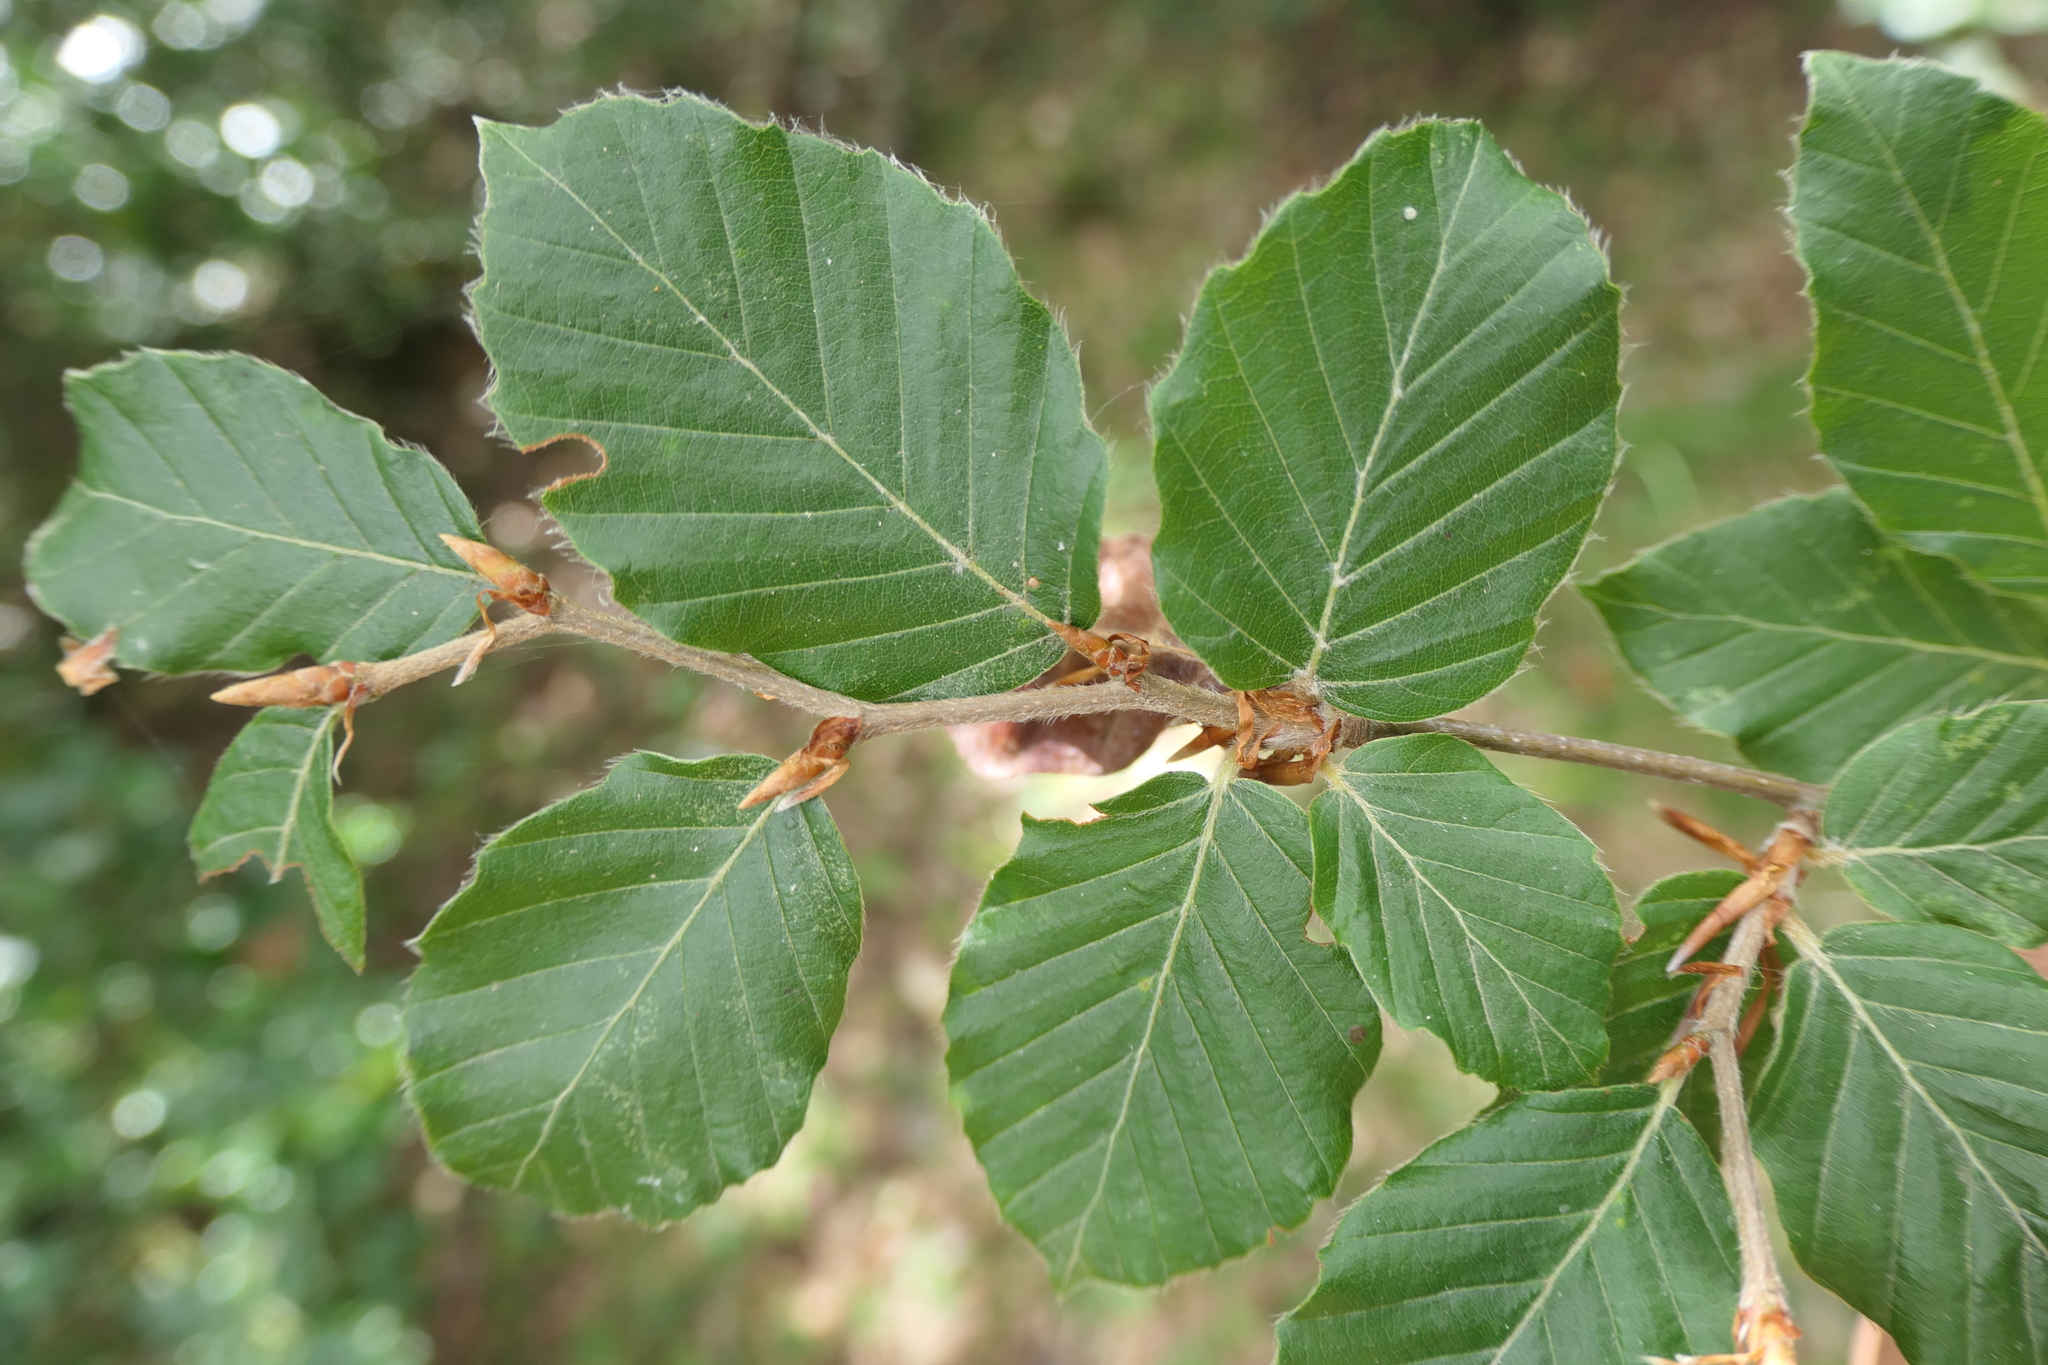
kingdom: Plantae
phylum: Tracheophyta
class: Magnoliopsida
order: Fagales
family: Fagaceae
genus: Fagus
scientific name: Fagus sylvatica
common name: Beech
